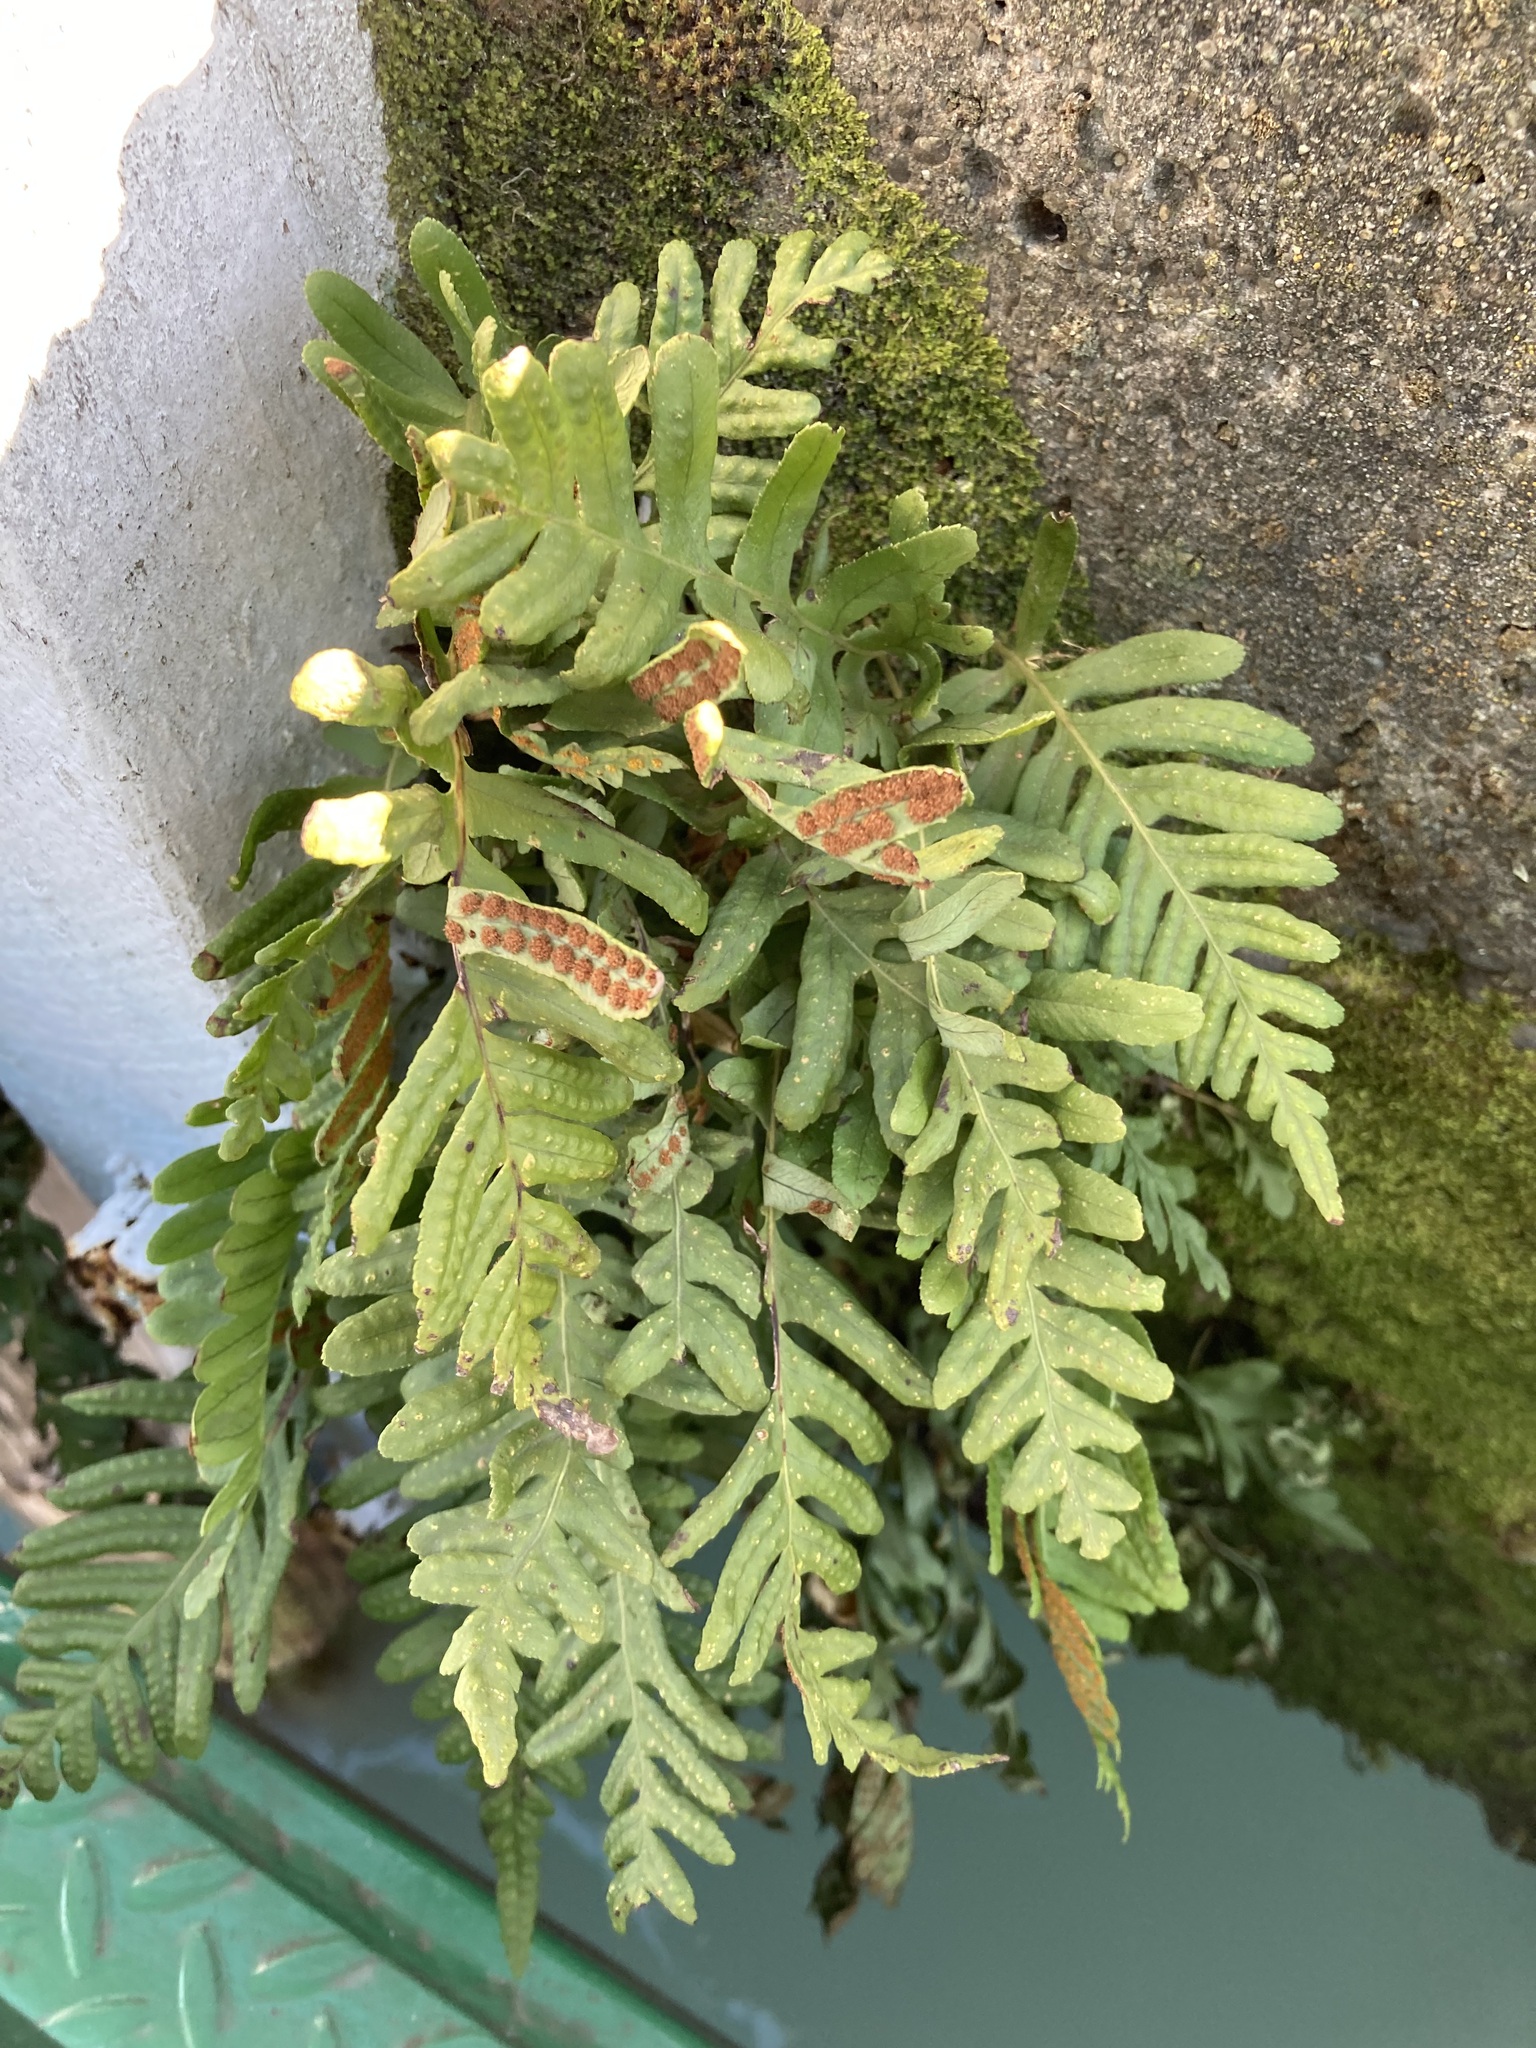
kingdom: Plantae
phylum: Tracheophyta
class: Polypodiopsida
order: Polypodiales
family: Polypodiaceae
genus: Polypodium
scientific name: Polypodium vulgare
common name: Common polypody
